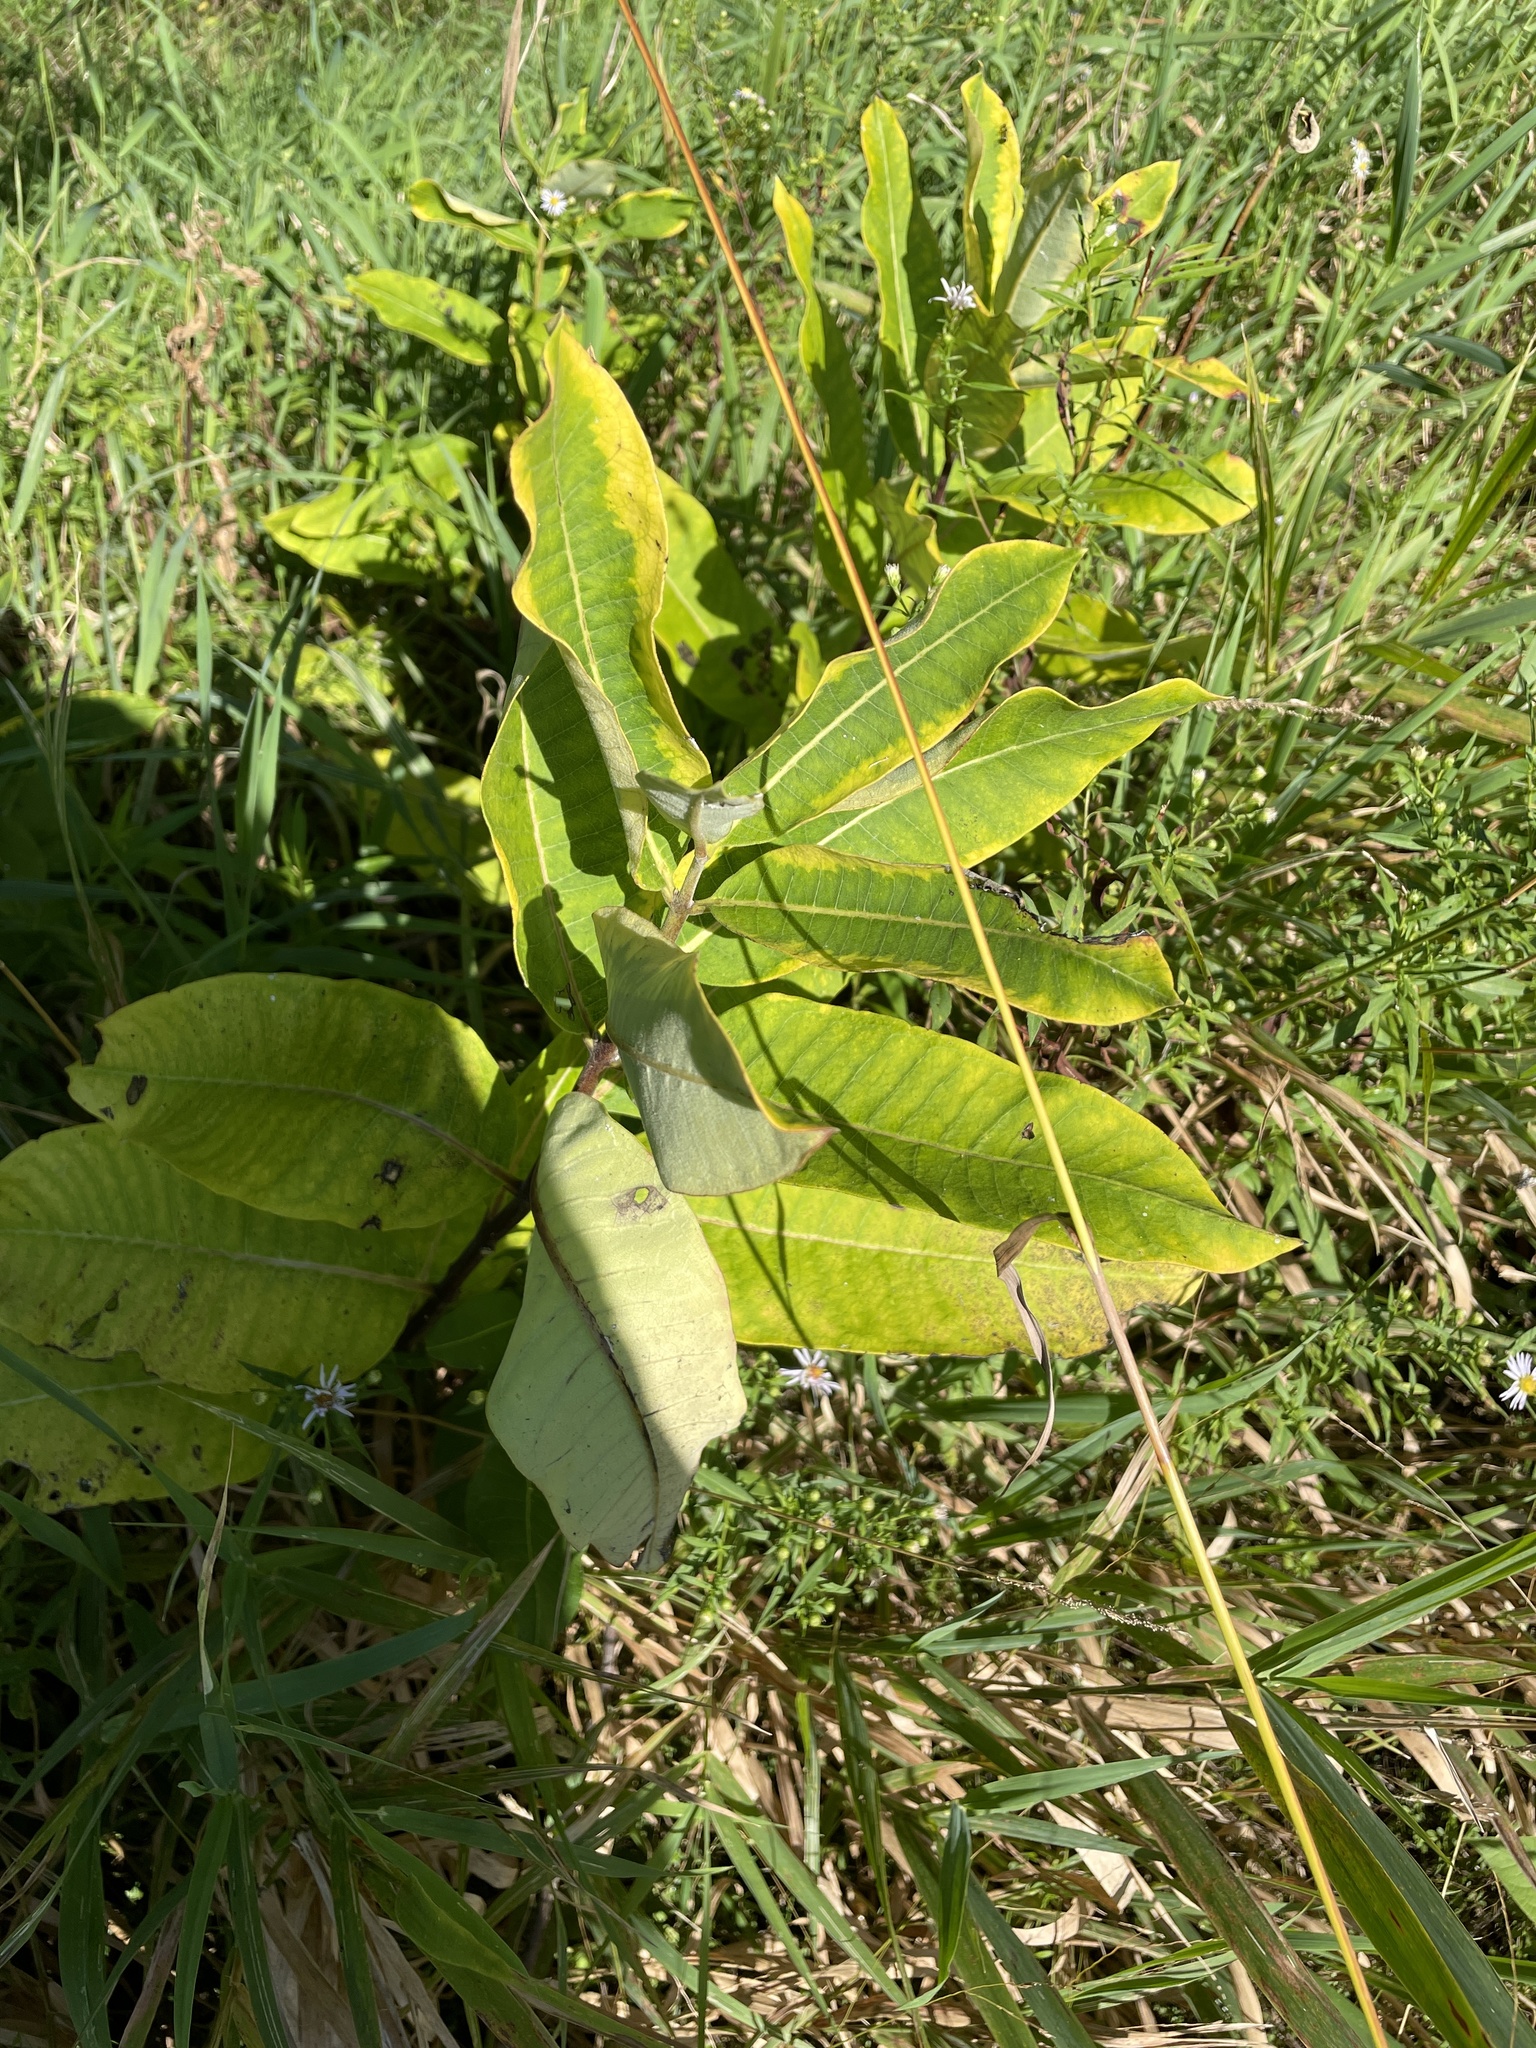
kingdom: Plantae
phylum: Tracheophyta
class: Magnoliopsida
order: Gentianales
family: Apocynaceae
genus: Asclepias
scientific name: Asclepias syriaca
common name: Common milkweed
